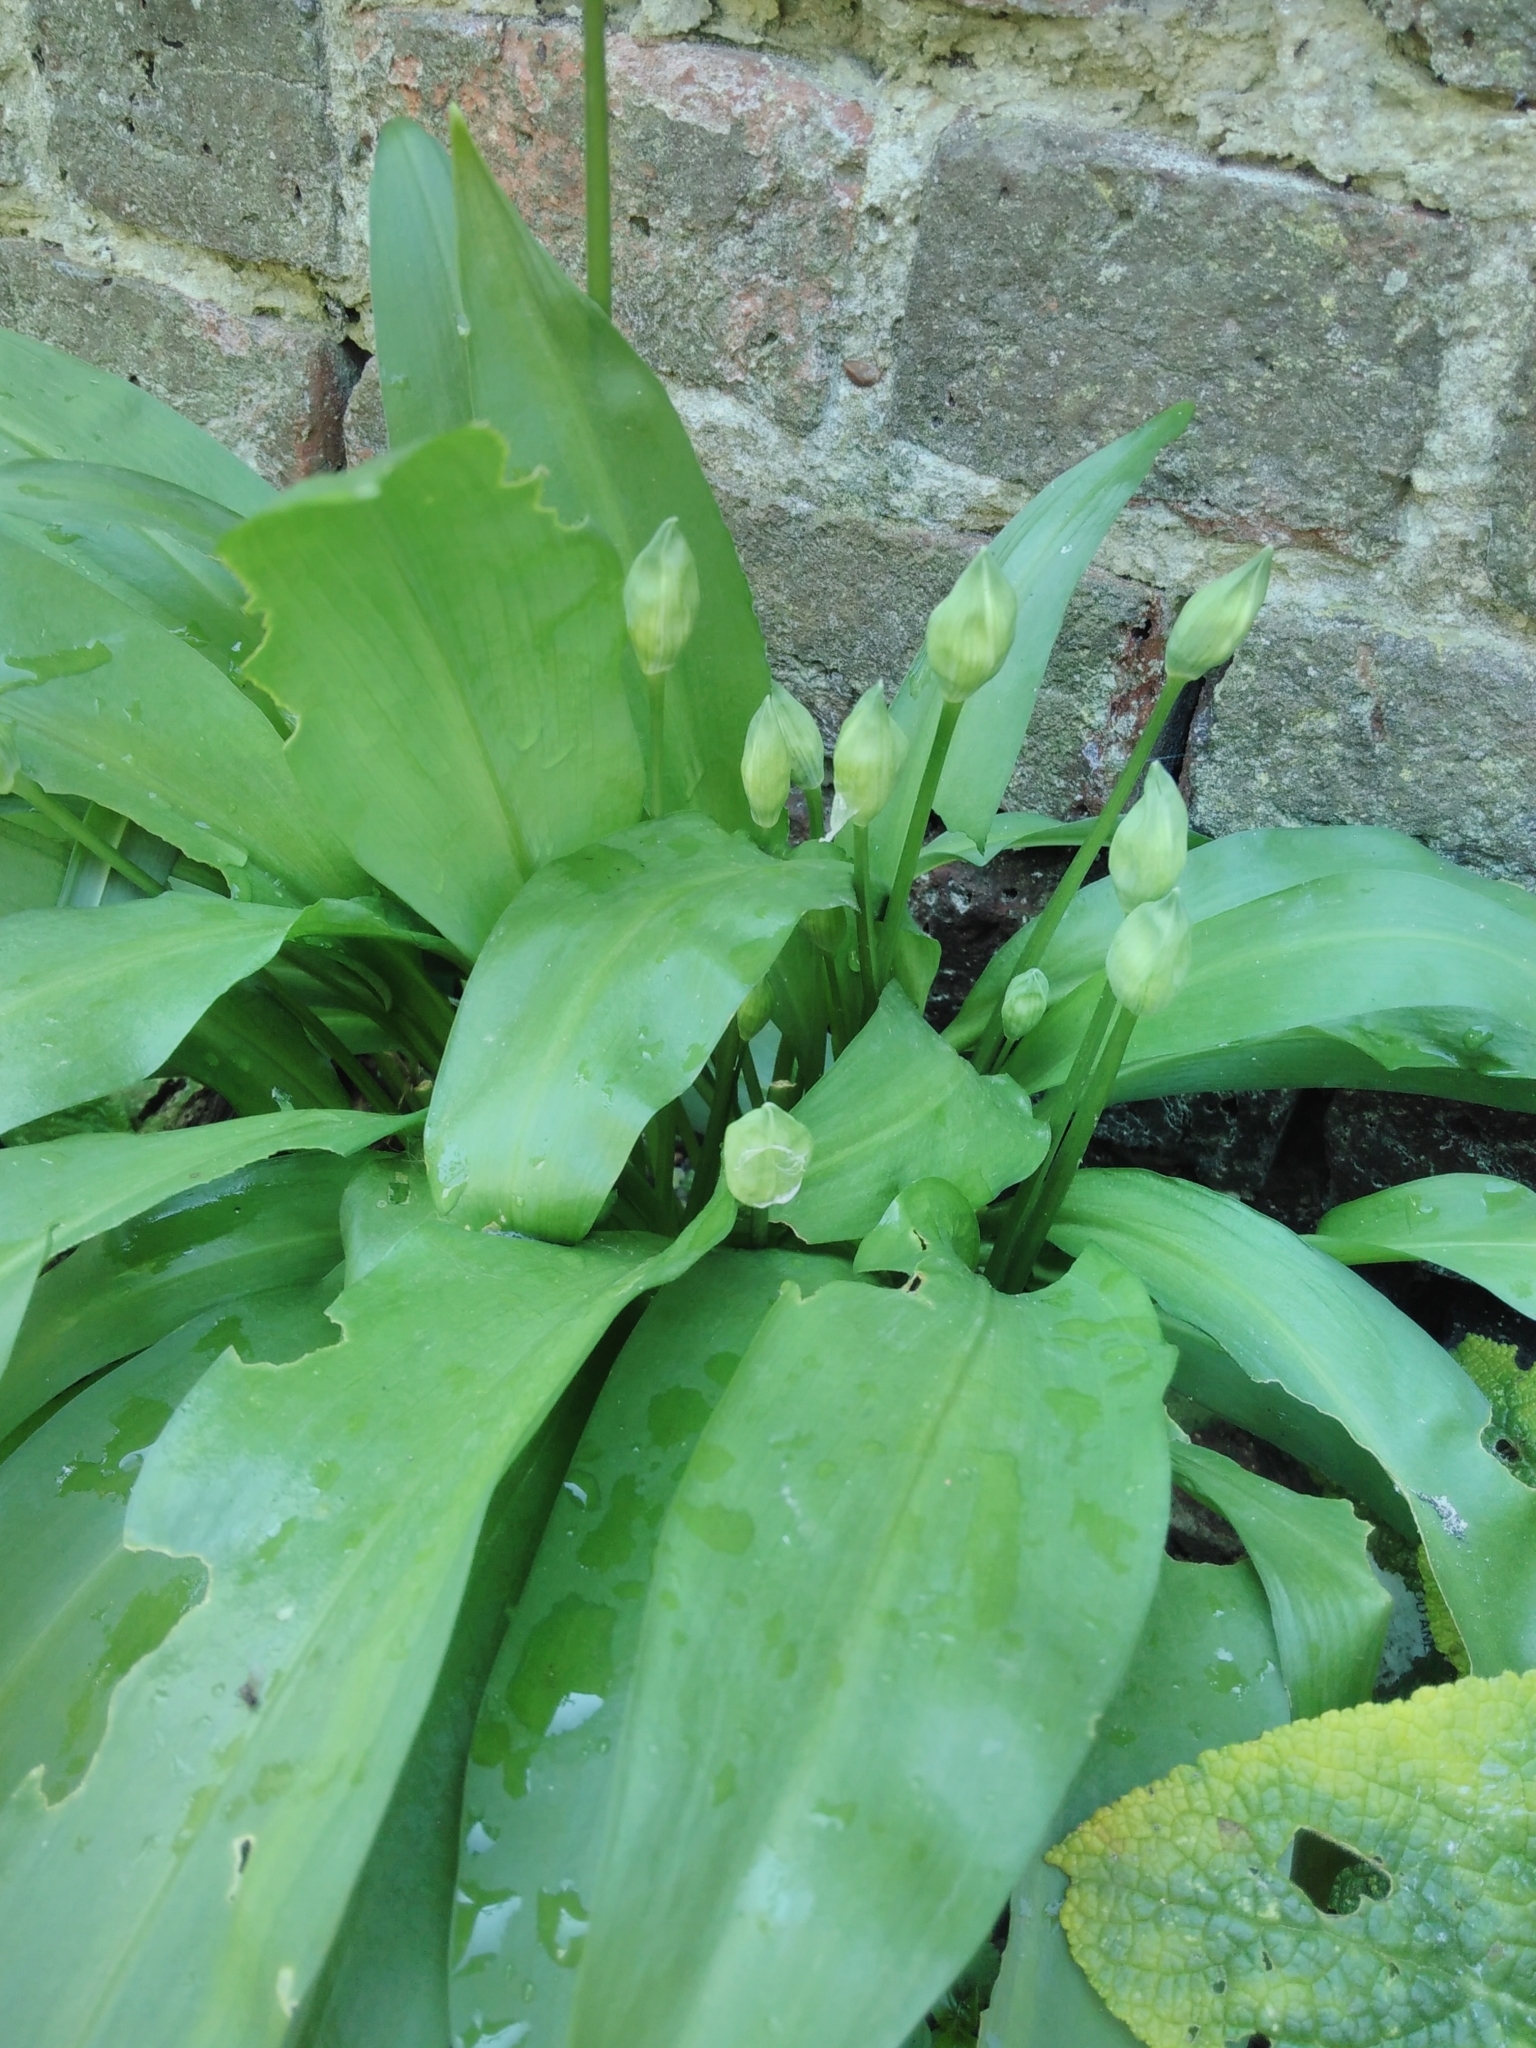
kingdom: Plantae
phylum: Tracheophyta
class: Liliopsida
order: Asparagales
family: Amaryllidaceae
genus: Allium
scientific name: Allium ursinum
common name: Ramsons
